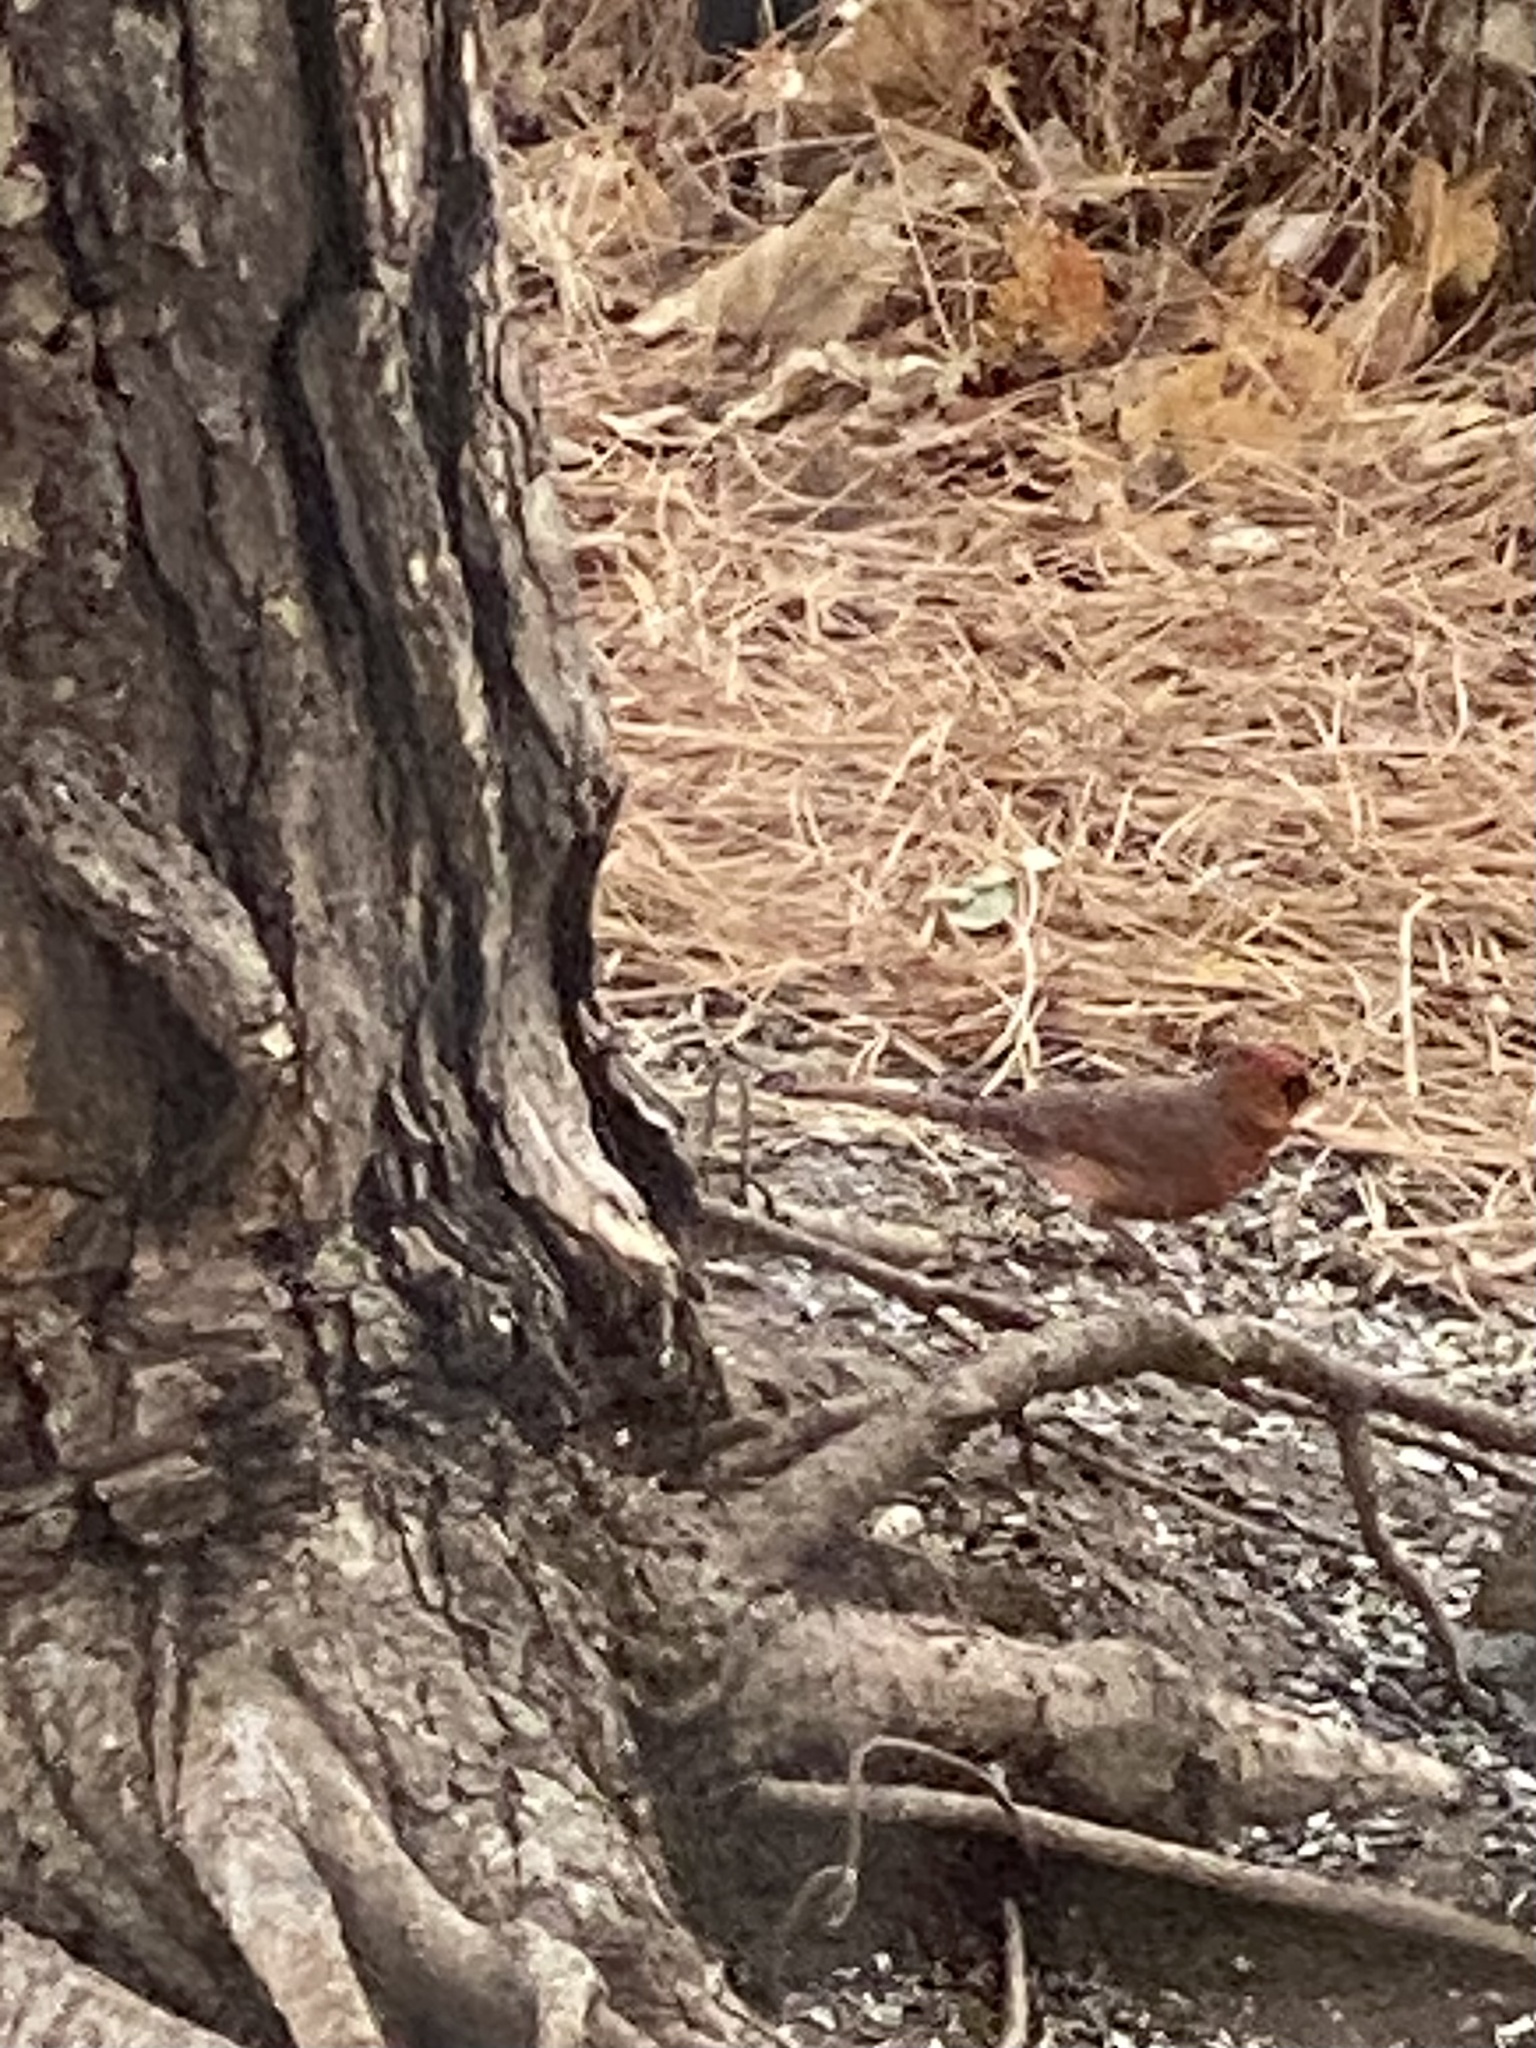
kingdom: Animalia
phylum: Chordata
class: Aves
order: Passeriformes
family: Cardinalidae
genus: Cardinalis
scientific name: Cardinalis cardinalis
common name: Northern cardinal
